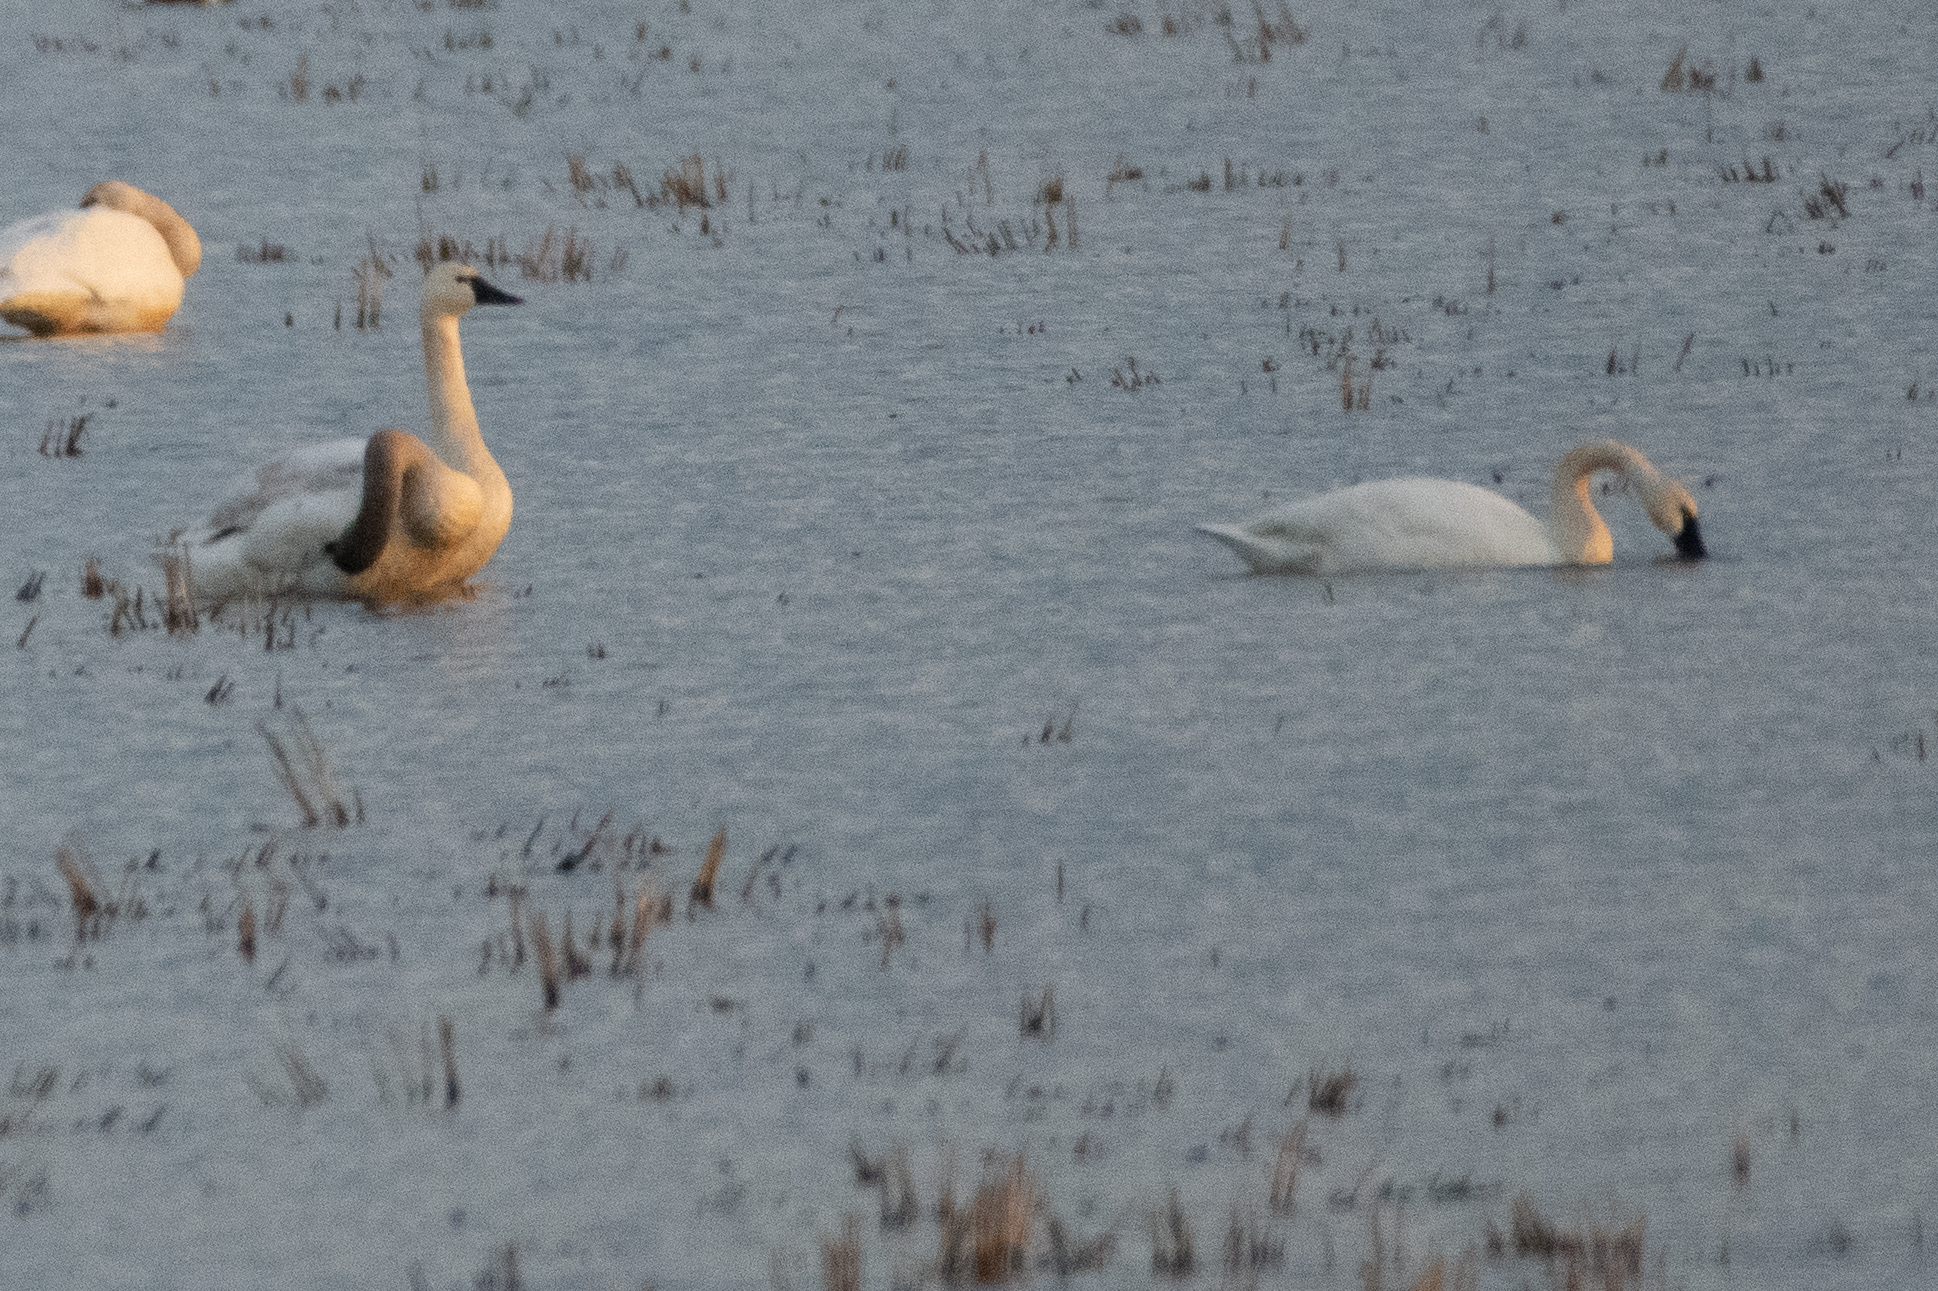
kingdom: Animalia
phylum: Chordata
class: Aves
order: Anseriformes
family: Anatidae
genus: Cygnus
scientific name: Cygnus columbianus
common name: Tundra swan
